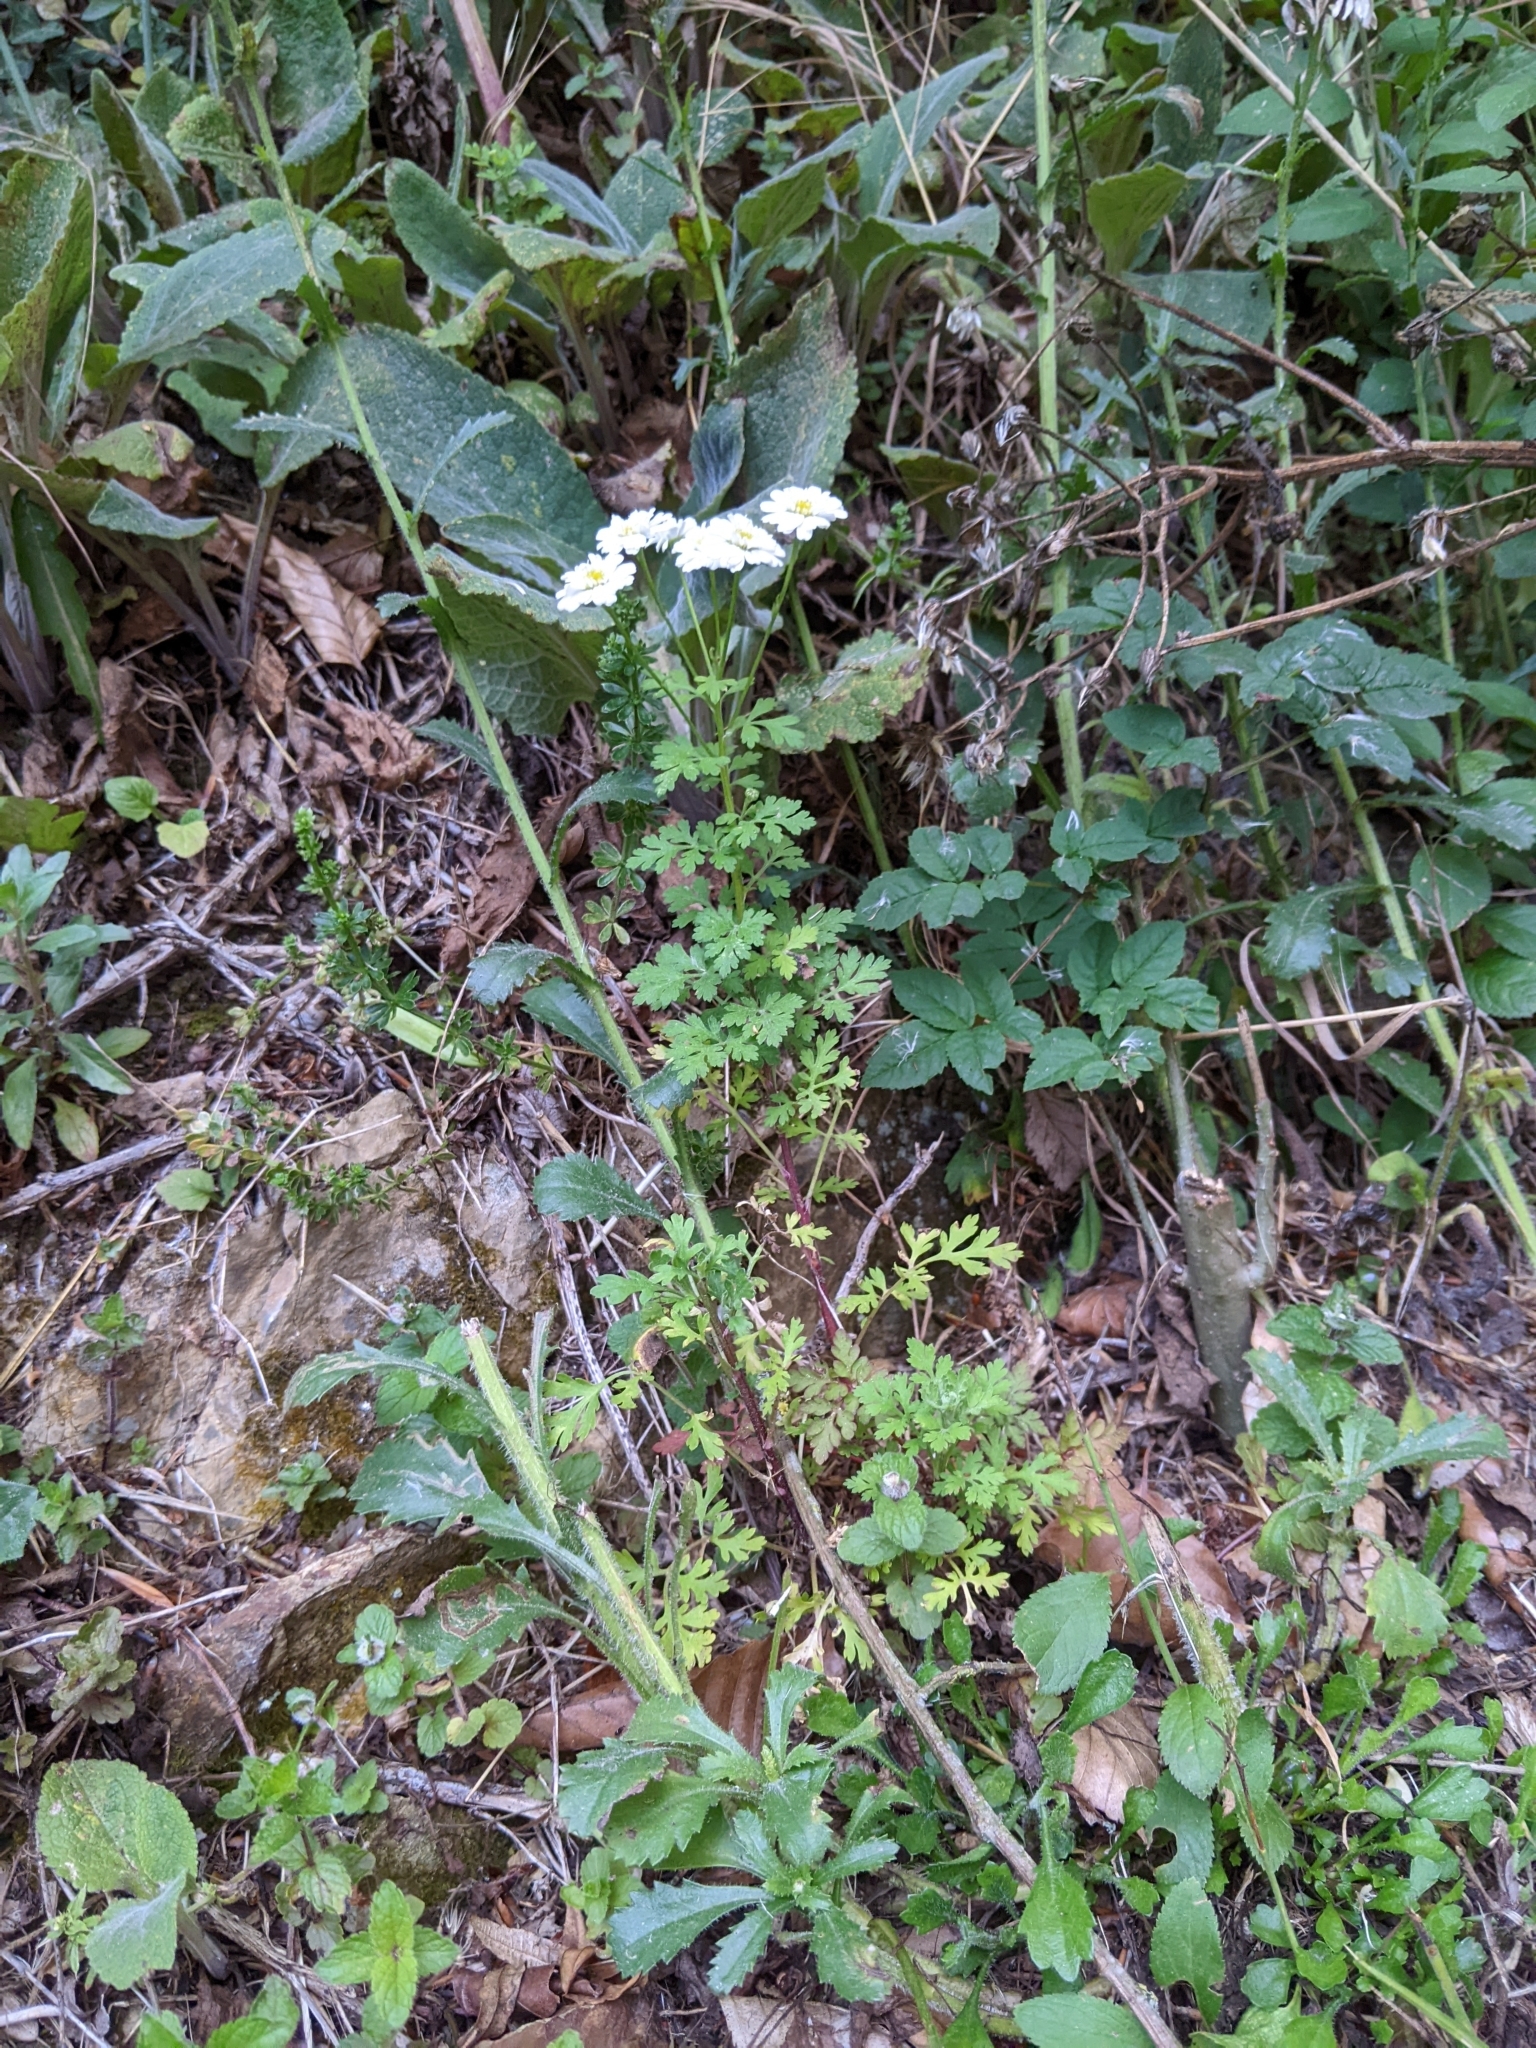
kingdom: Plantae
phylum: Tracheophyta
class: Magnoliopsida
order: Asterales
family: Asteraceae
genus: Tanacetum
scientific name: Tanacetum parthenium
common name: Feverfew
